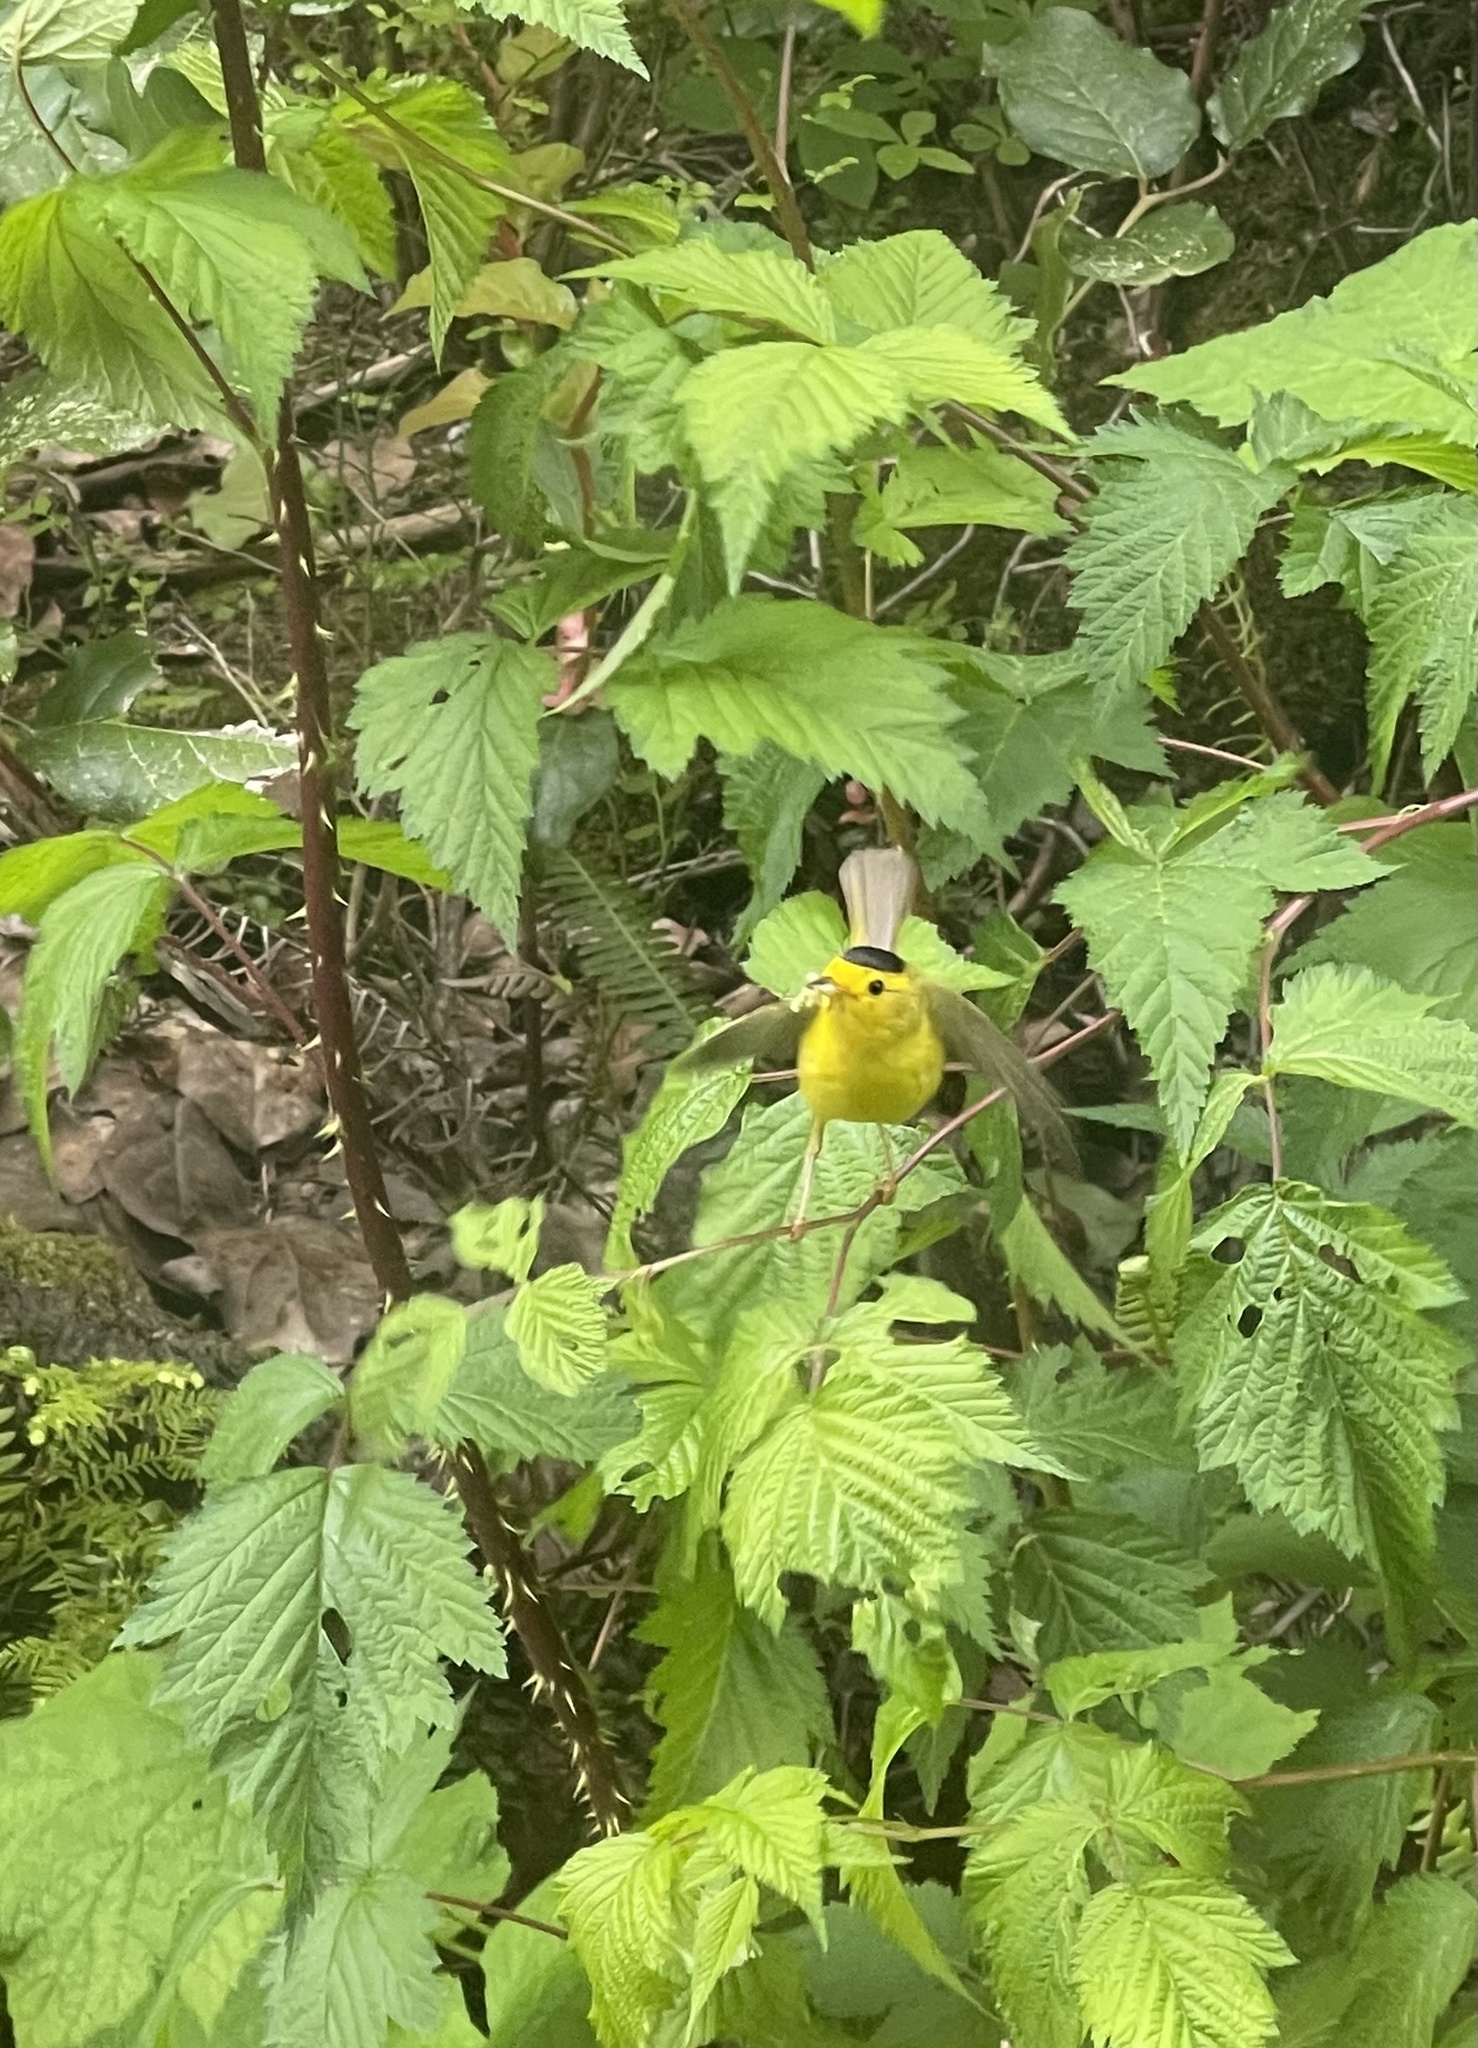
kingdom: Animalia
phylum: Chordata
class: Aves
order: Passeriformes
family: Parulidae
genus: Cardellina
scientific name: Cardellina pusilla
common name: Wilson's warbler
